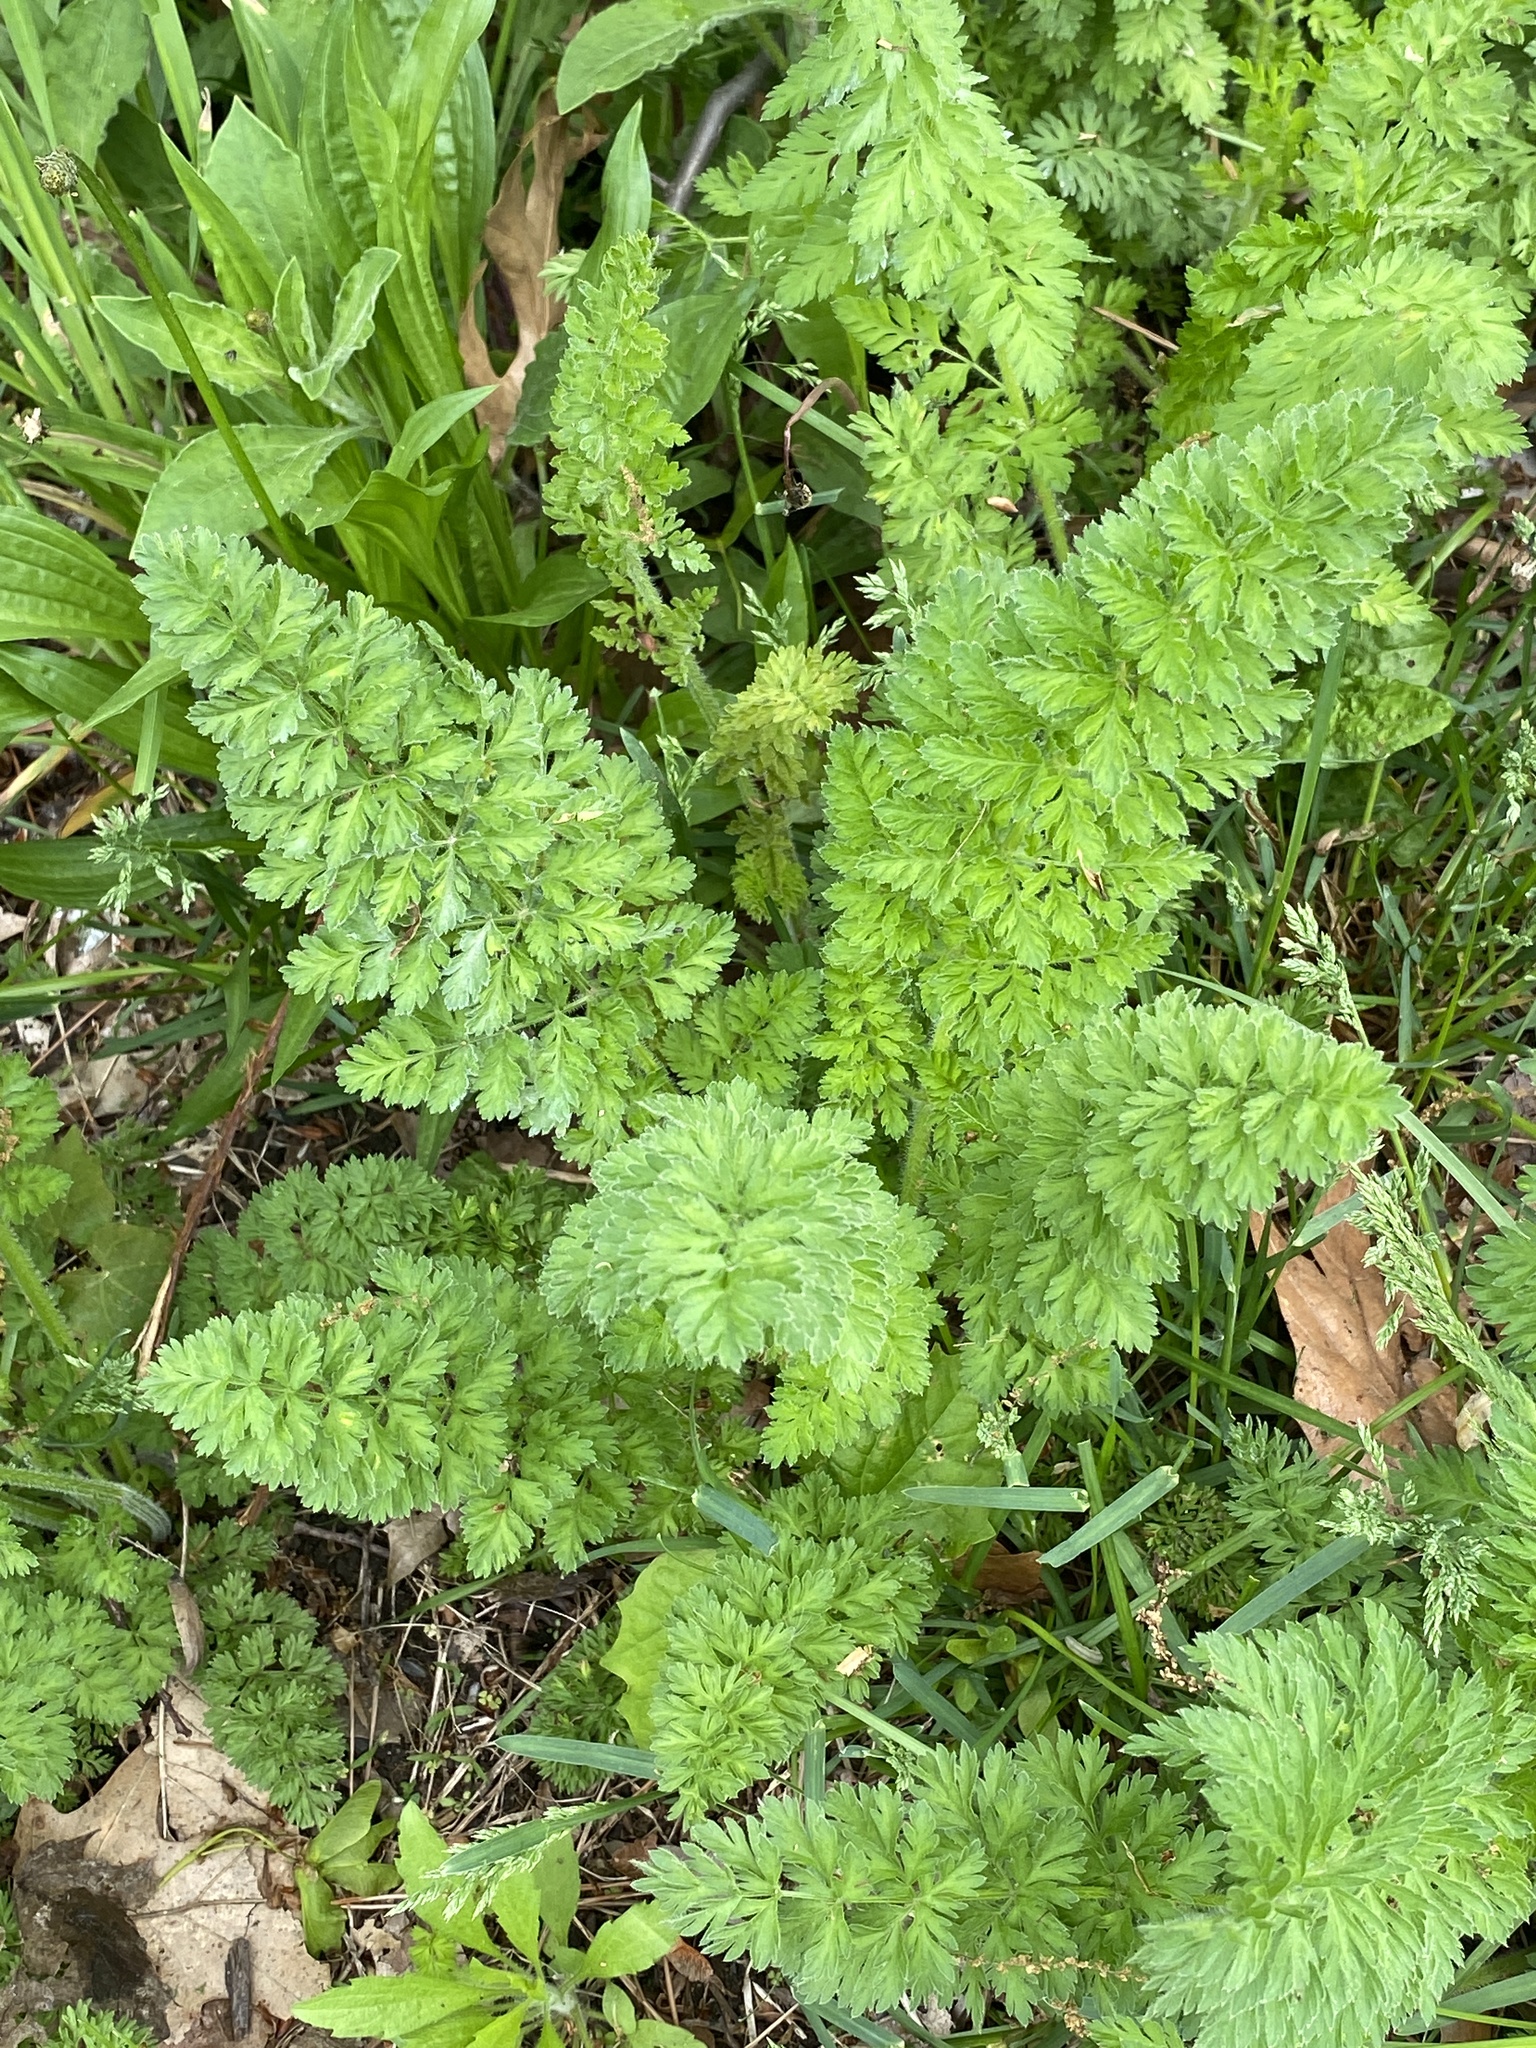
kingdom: Plantae
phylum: Tracheophyta
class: Magnoliopsida
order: Apiales
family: Apiaceae
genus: Daucus
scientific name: Daucus carota
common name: Wild carrot
